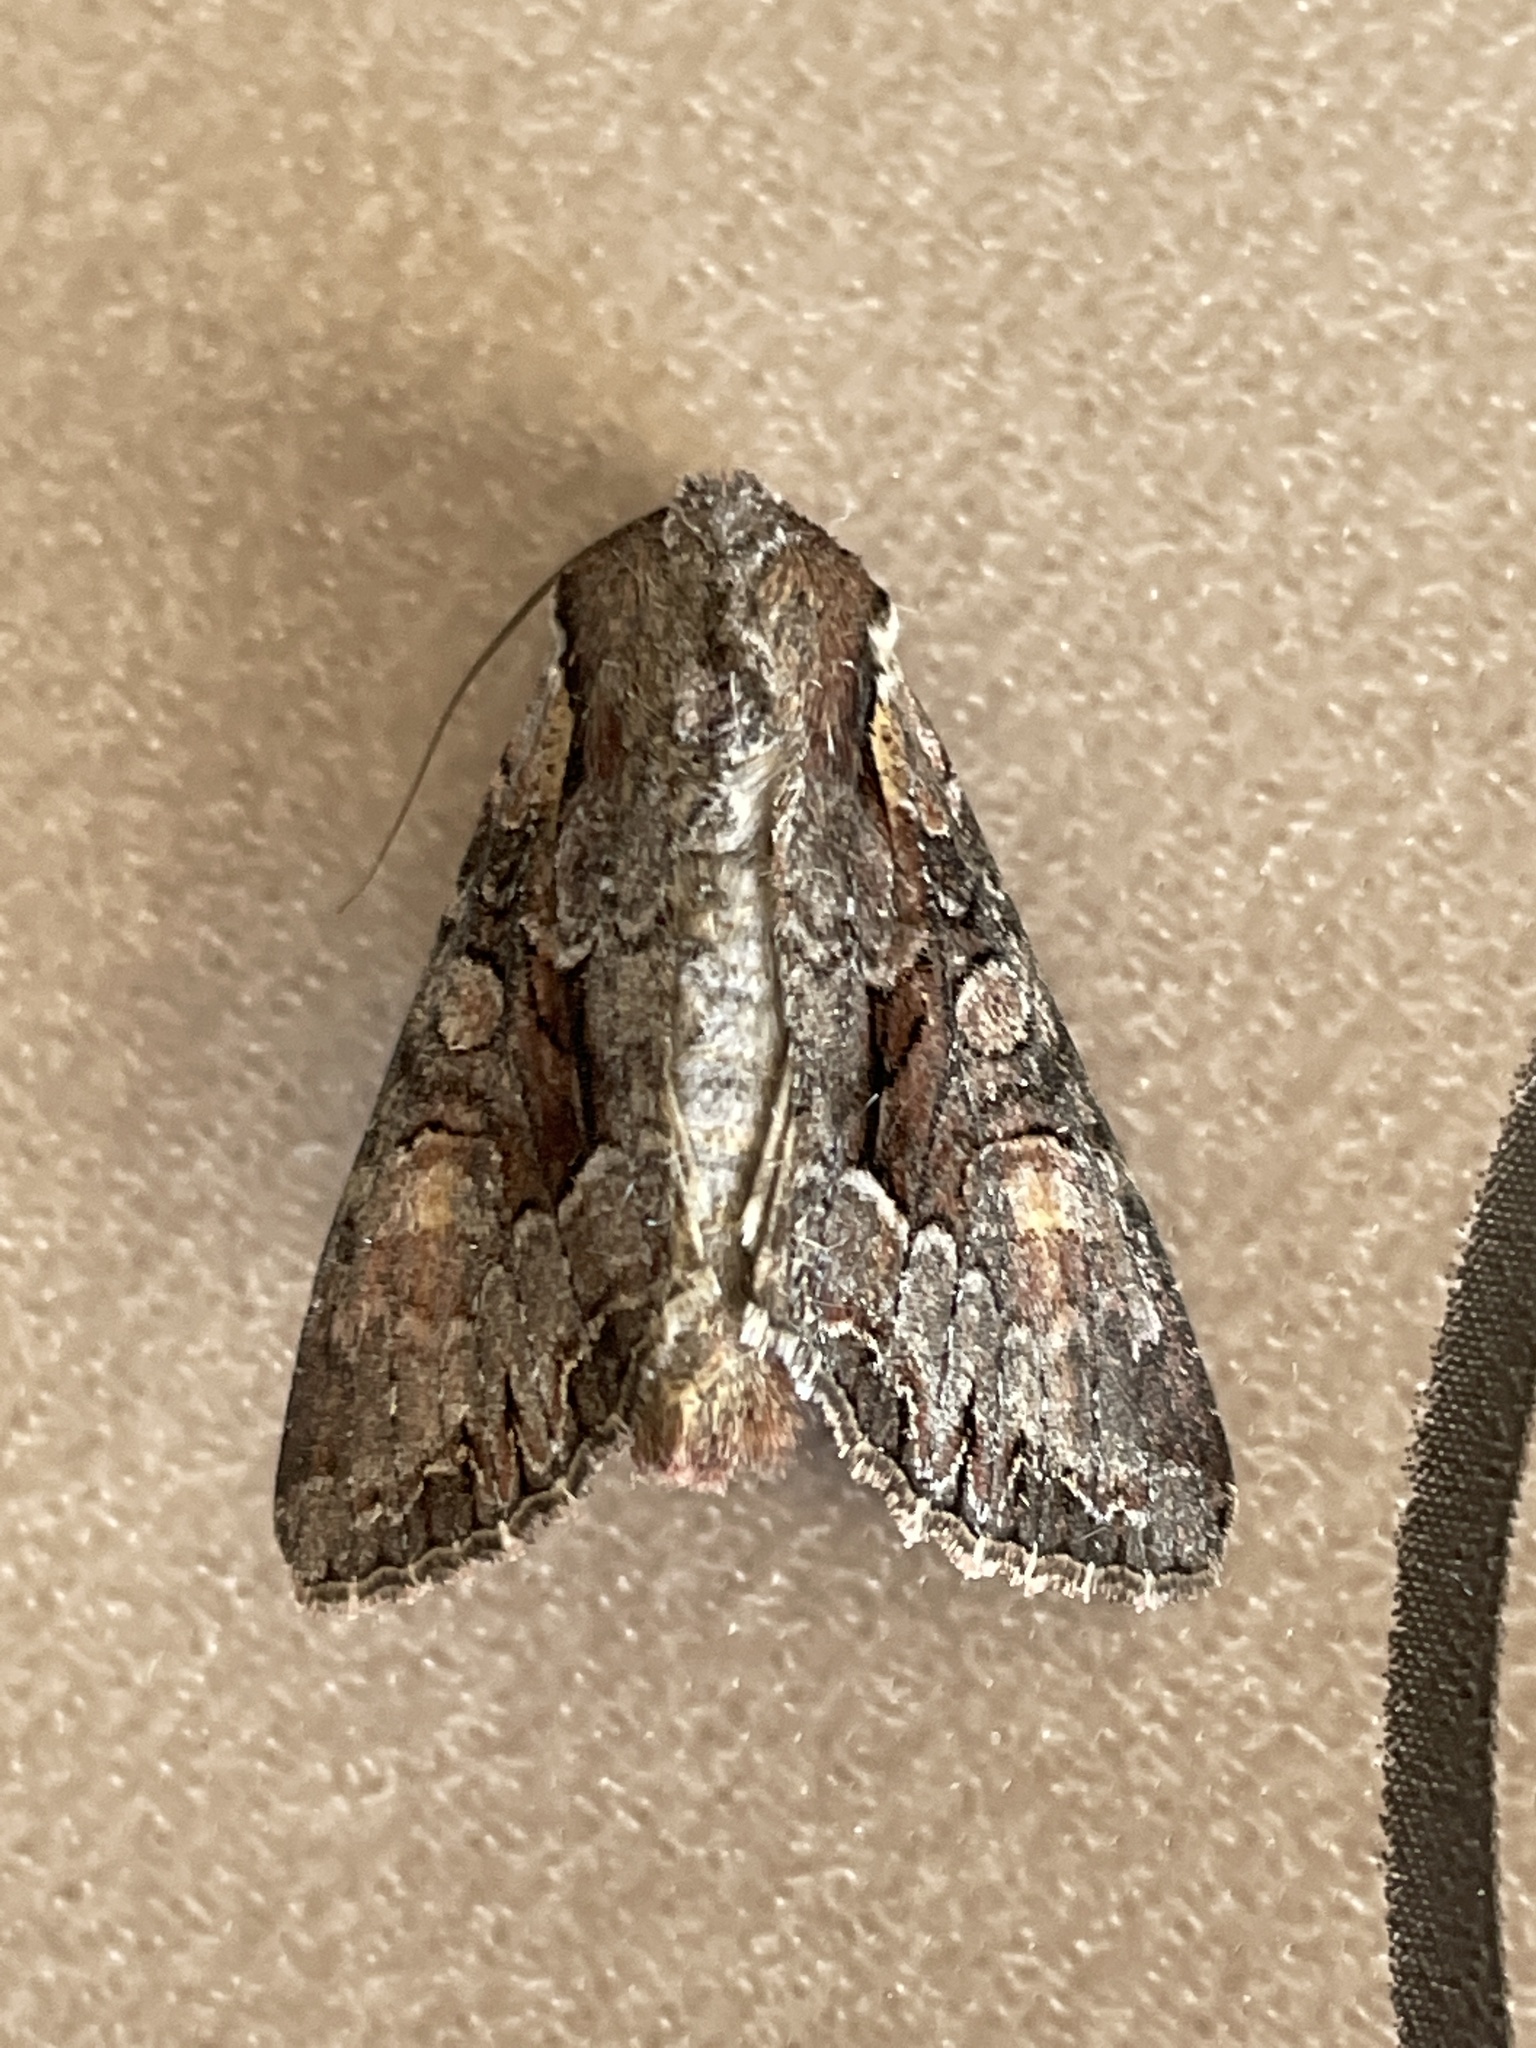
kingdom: Animalia
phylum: Arthropoda
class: Insecta
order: Lepidoptera
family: Noctuidae
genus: Lacanobia
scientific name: Lacanobia w-latinum
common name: Light brocade
